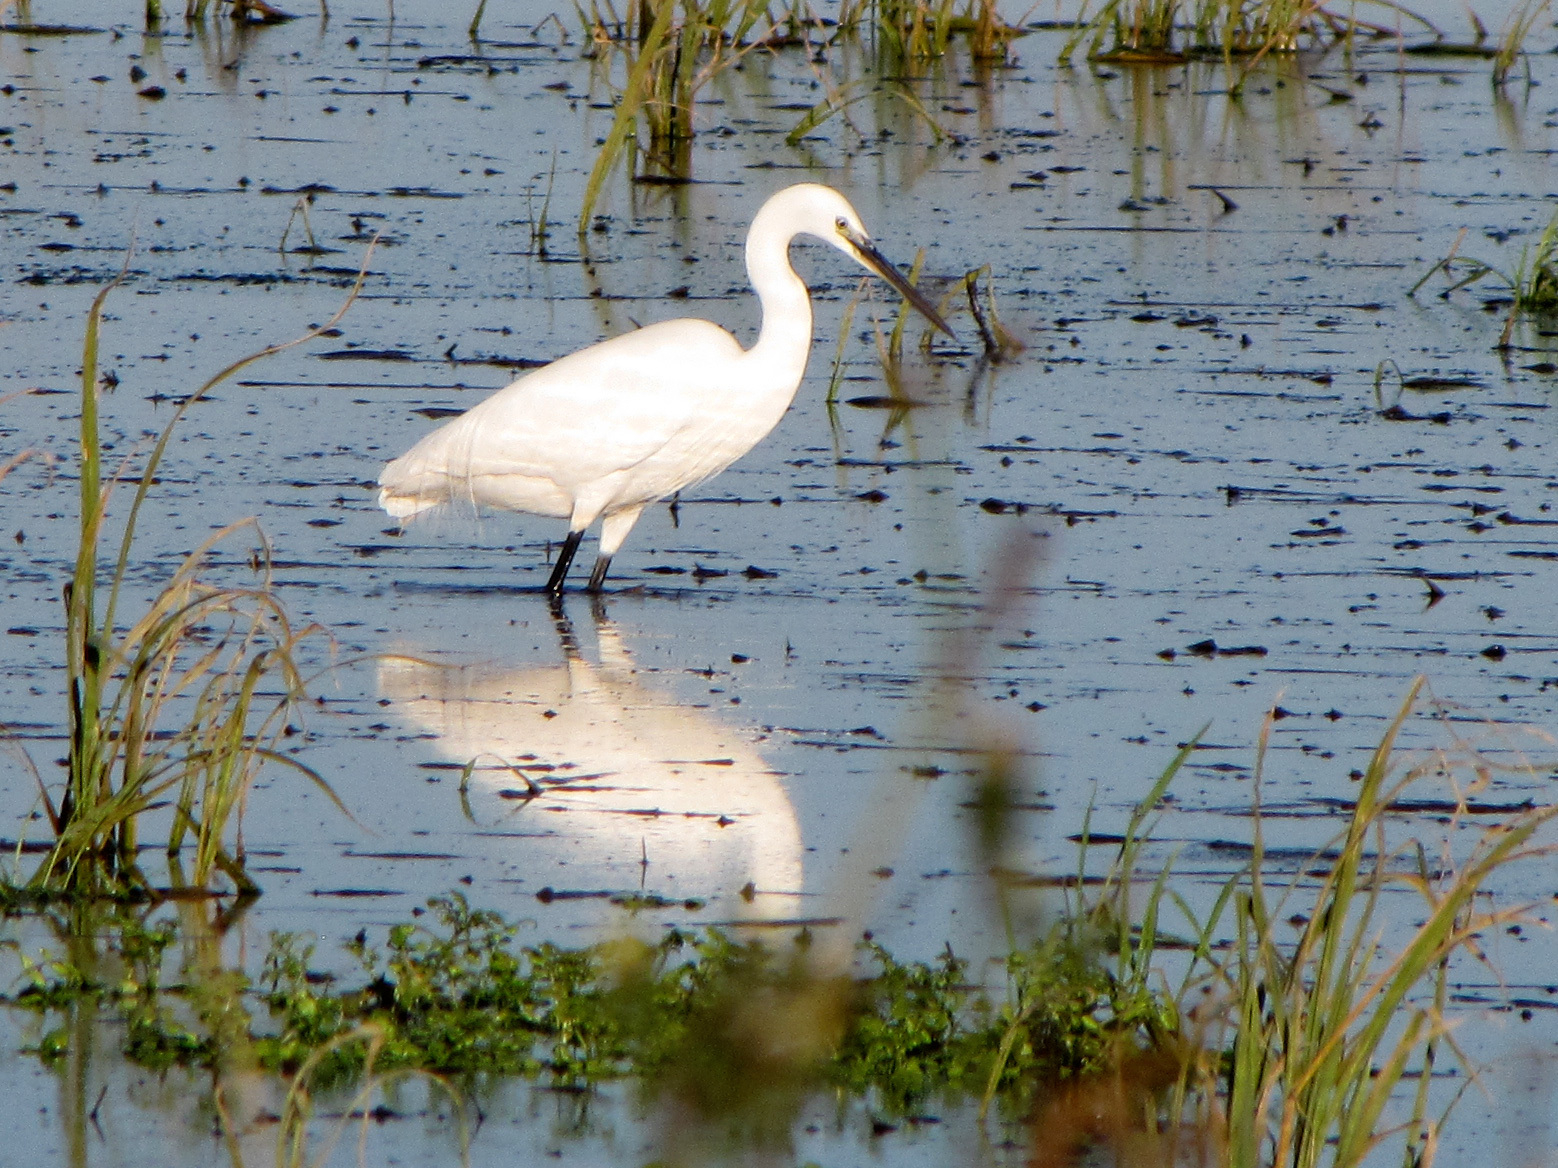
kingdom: Animalia
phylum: Chordata
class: Aves
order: Pelecaniformes
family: Ardeidae
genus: Egretta
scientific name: Egretta garzetta
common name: Little egret
